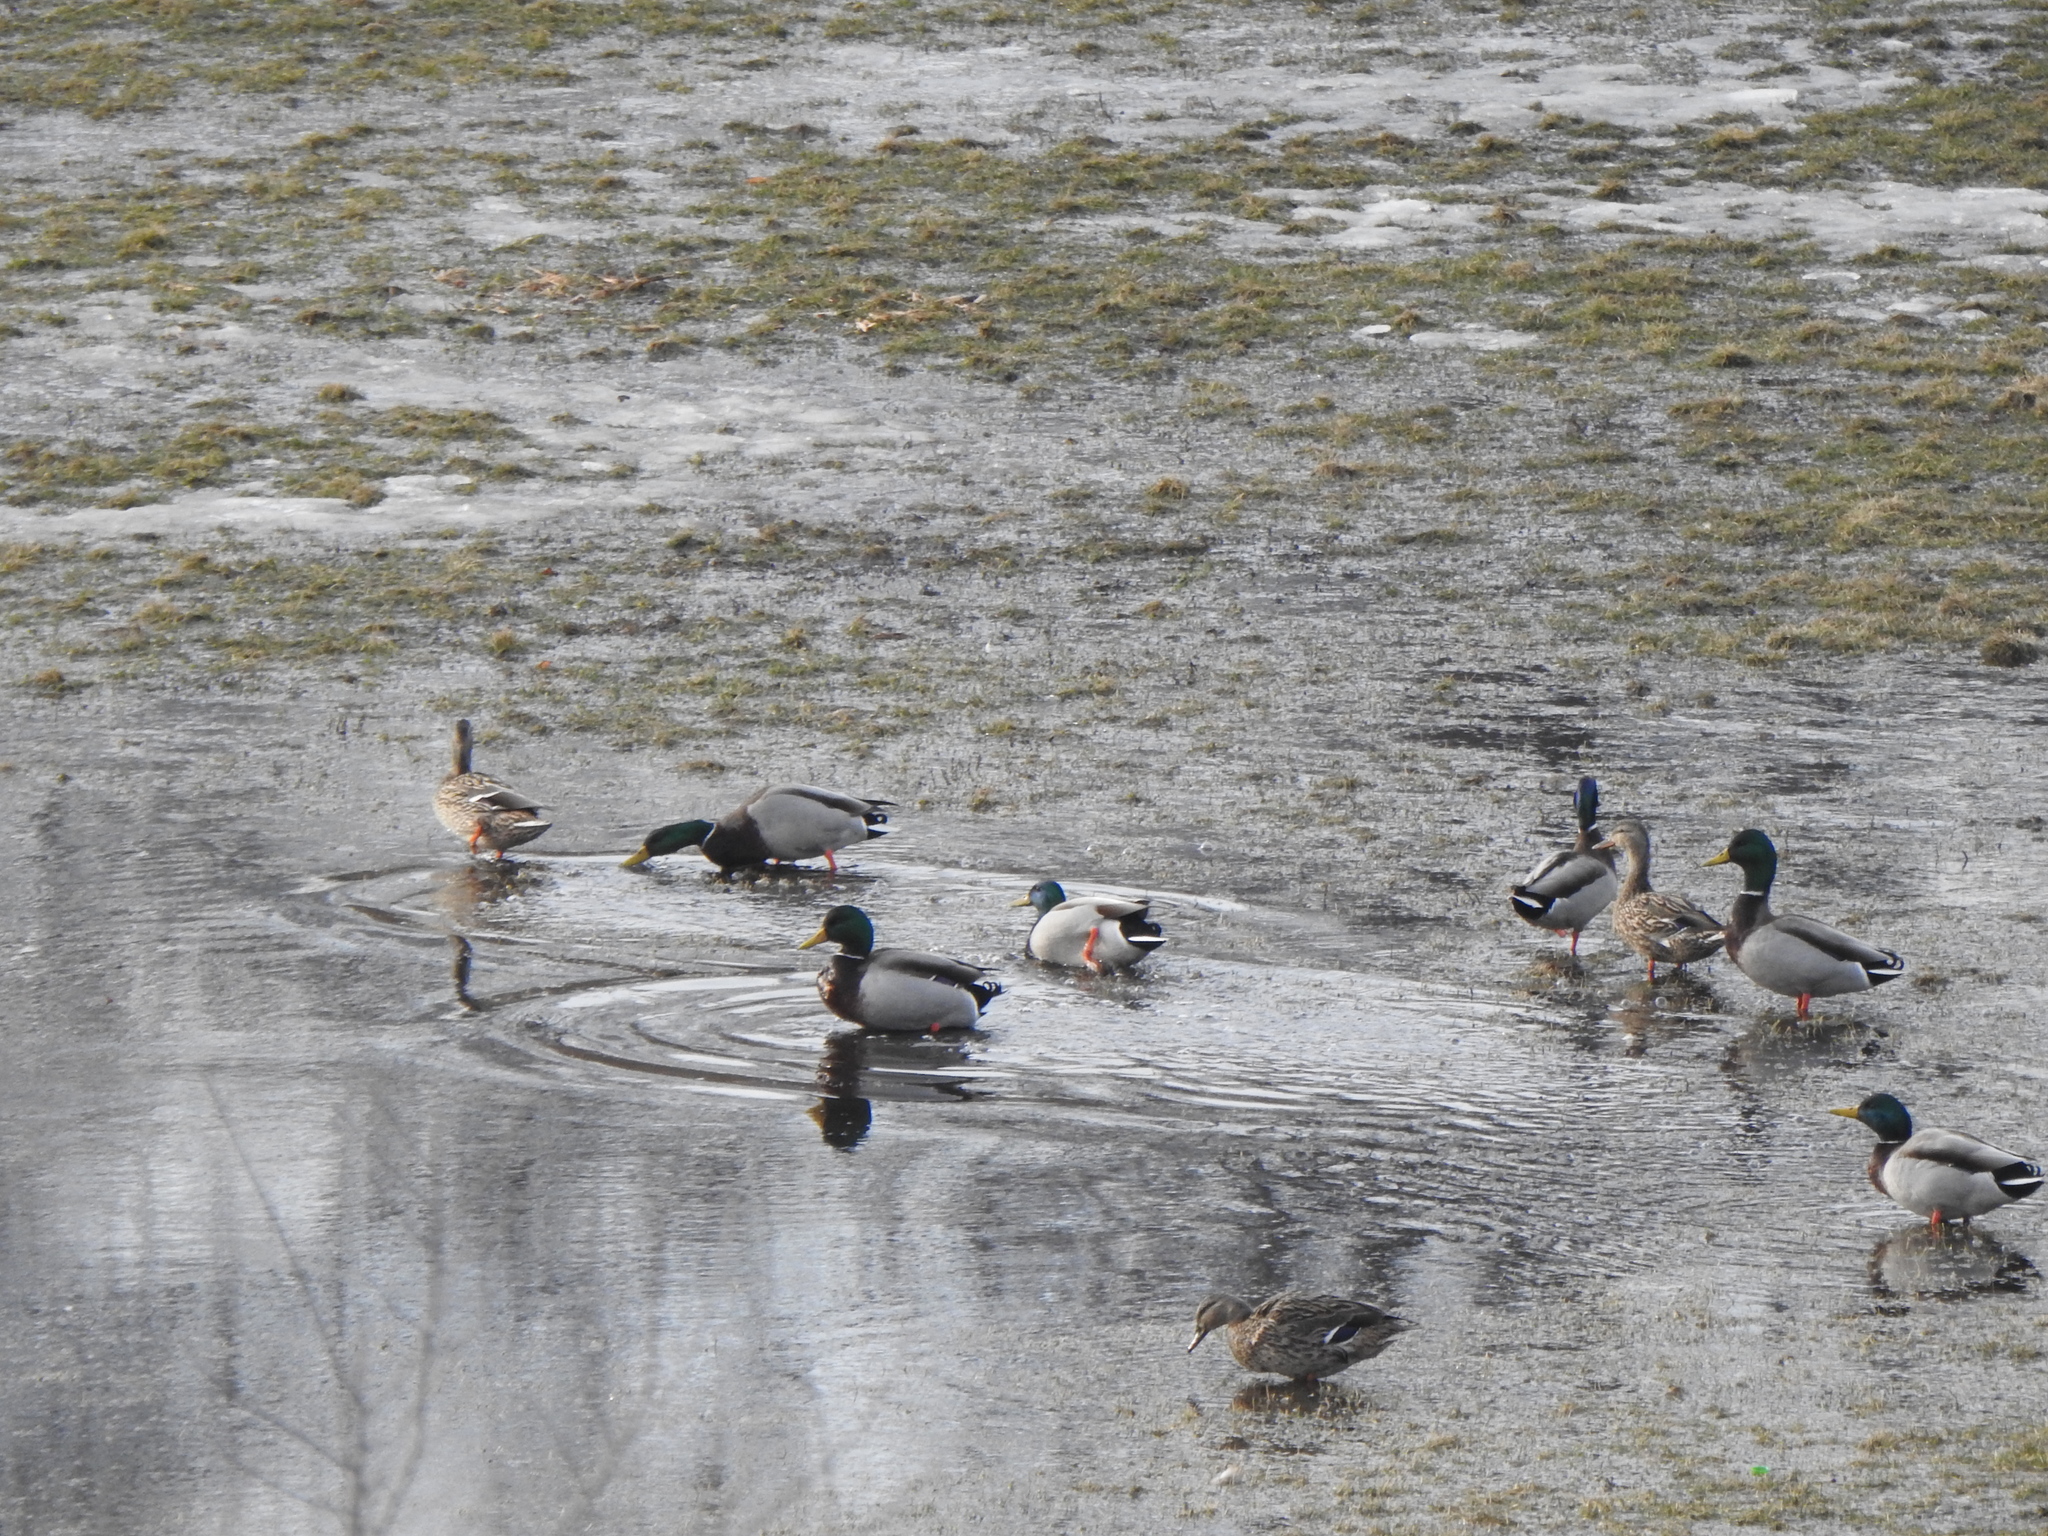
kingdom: Animalia
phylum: Chordata
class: Aves
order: Anseriformes
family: Anatidae
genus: Anas
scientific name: Anas platyrhynchos
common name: Mallard
